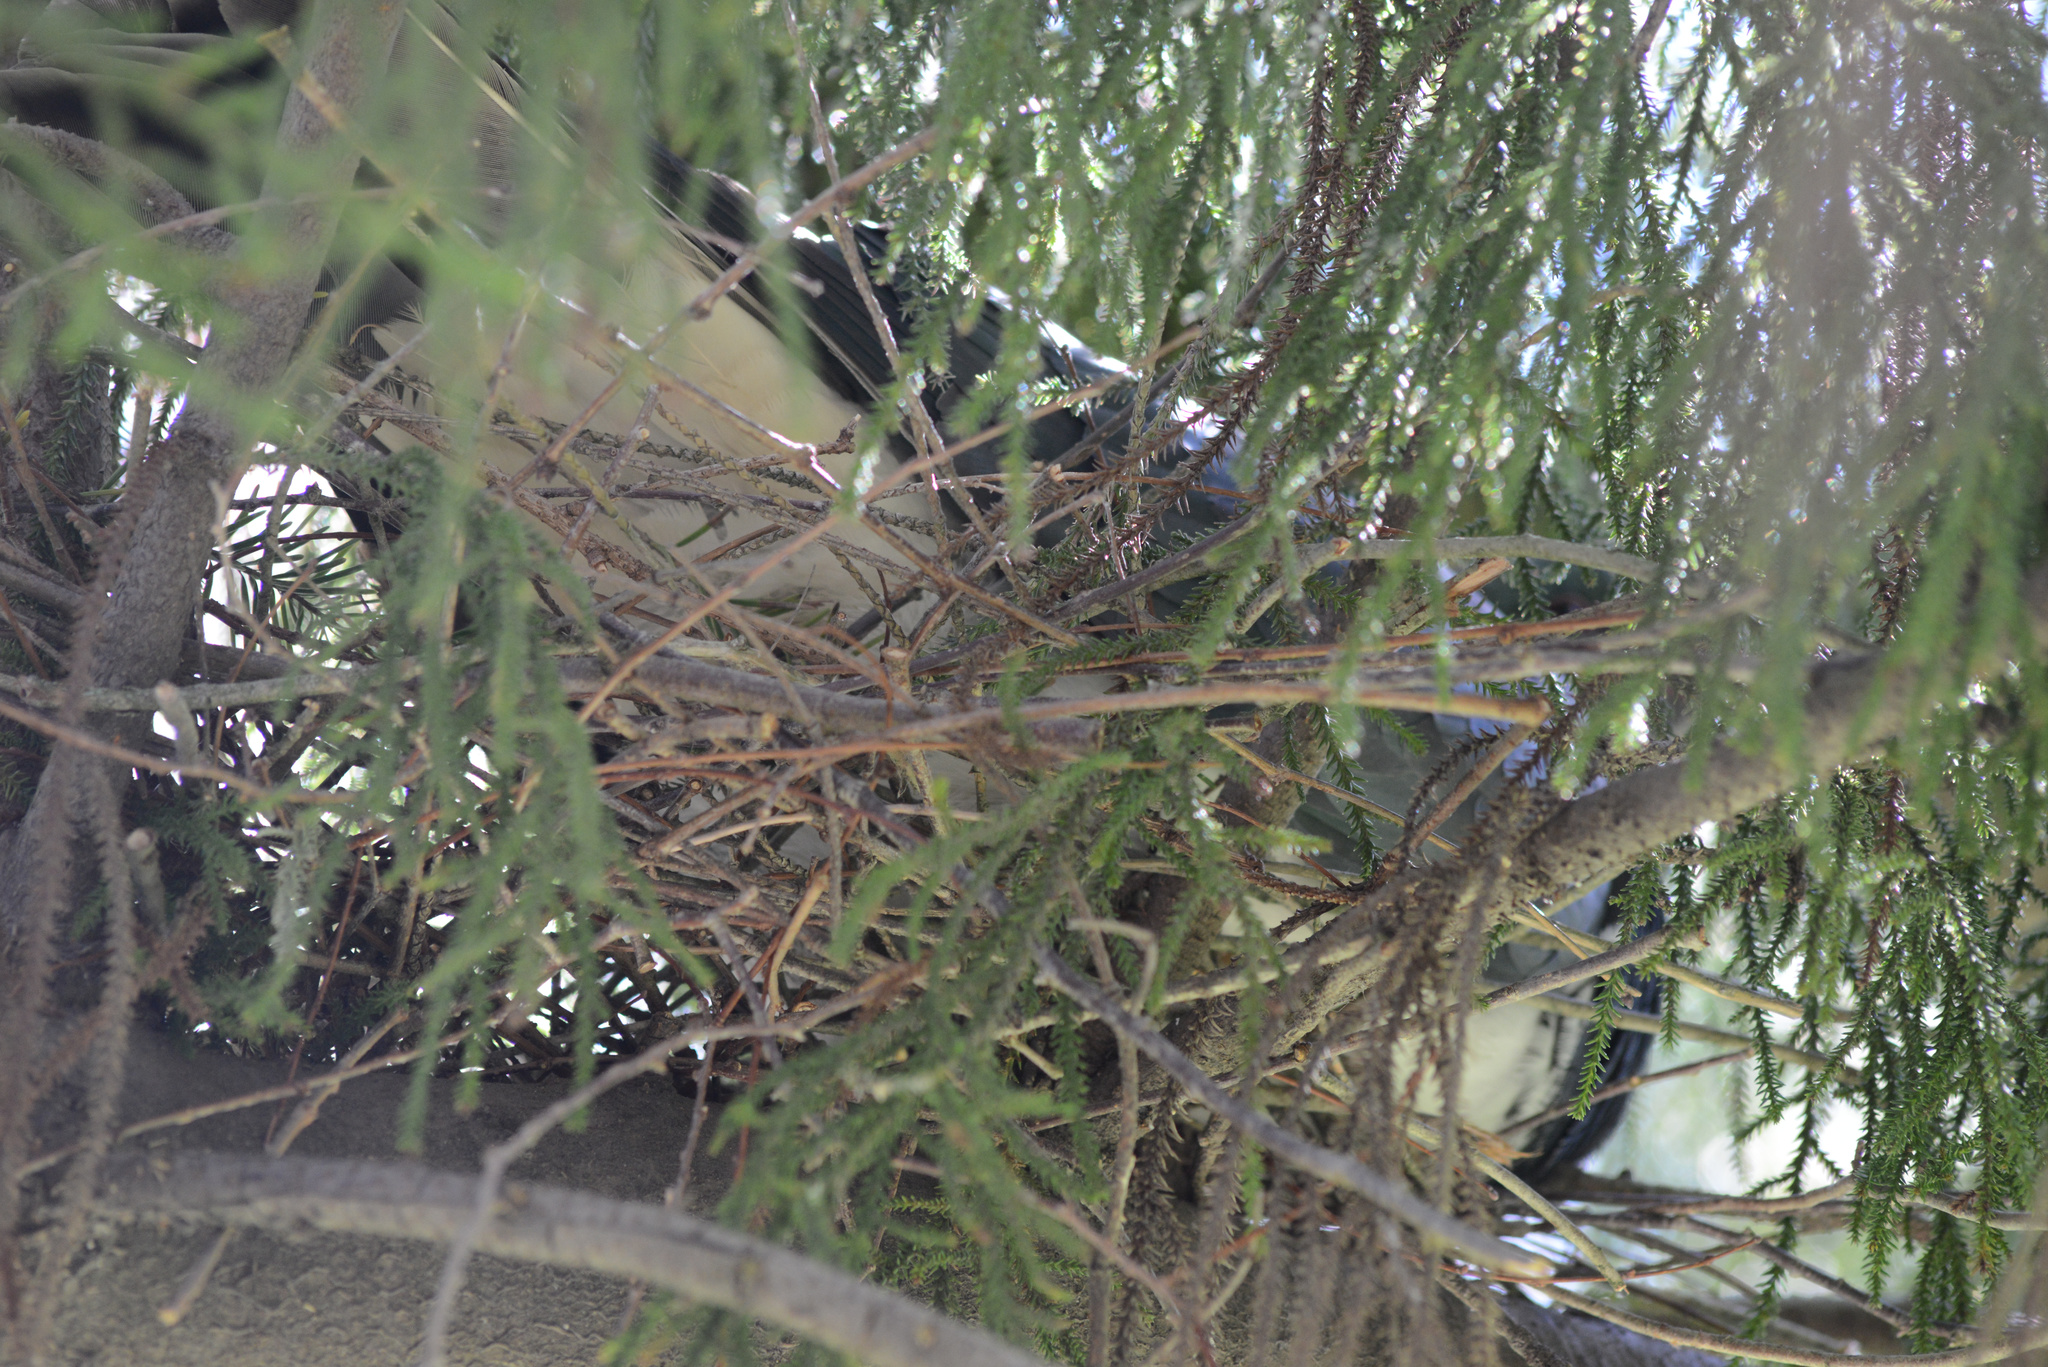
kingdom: Animalia
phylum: Chordata
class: Aves
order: Columbiformes
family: Columbidae
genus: Hemiphaga
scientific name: Hemiphaga novaeseelandiae
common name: New zealand pigeon
